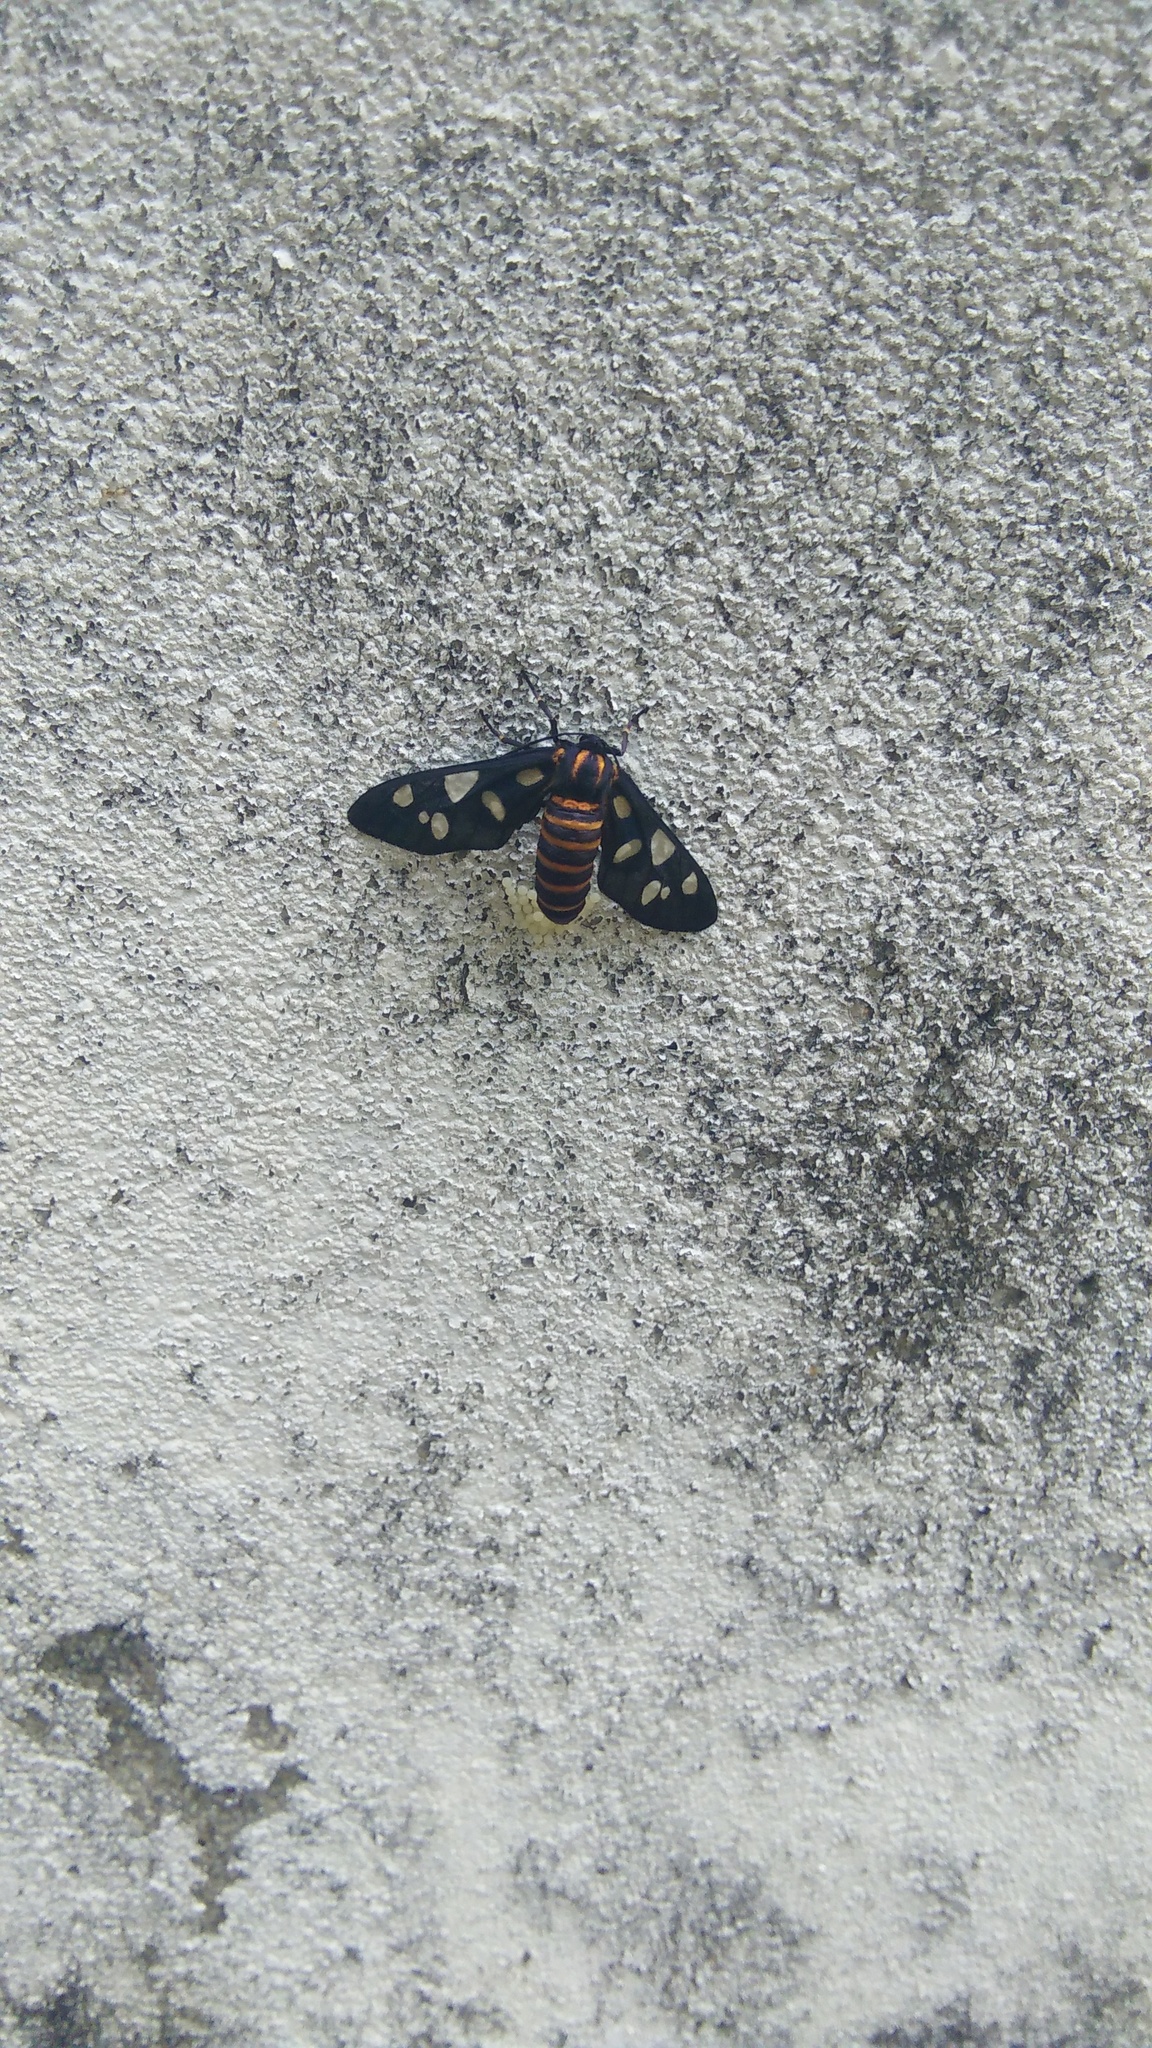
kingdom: Animalia
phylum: Arthropoda
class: Insecta
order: Lepidoptera
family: Erebidae
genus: Amata
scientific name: Amata passalis
